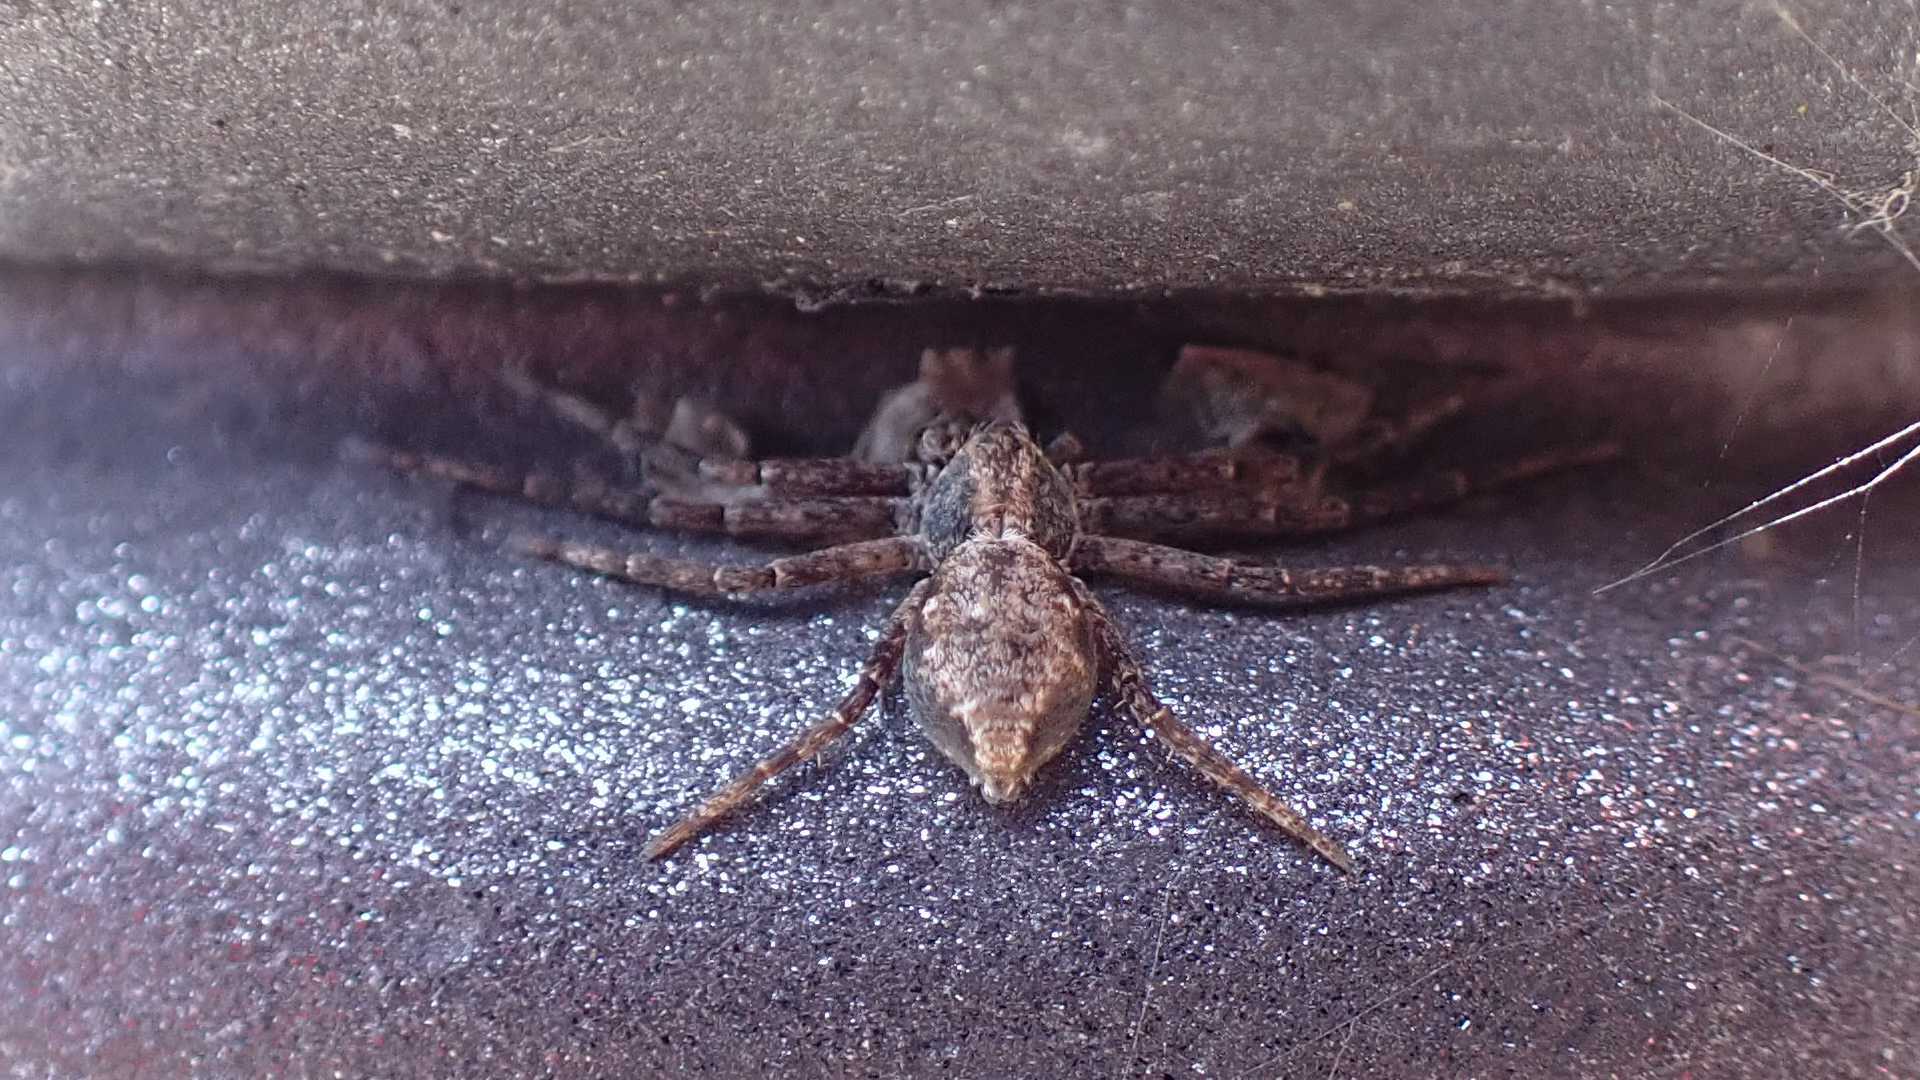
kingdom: Animalia
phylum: Arthropoda
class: Arachnida
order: Araneae
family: Philodromidae
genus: Philodromus
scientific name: Philodromus
